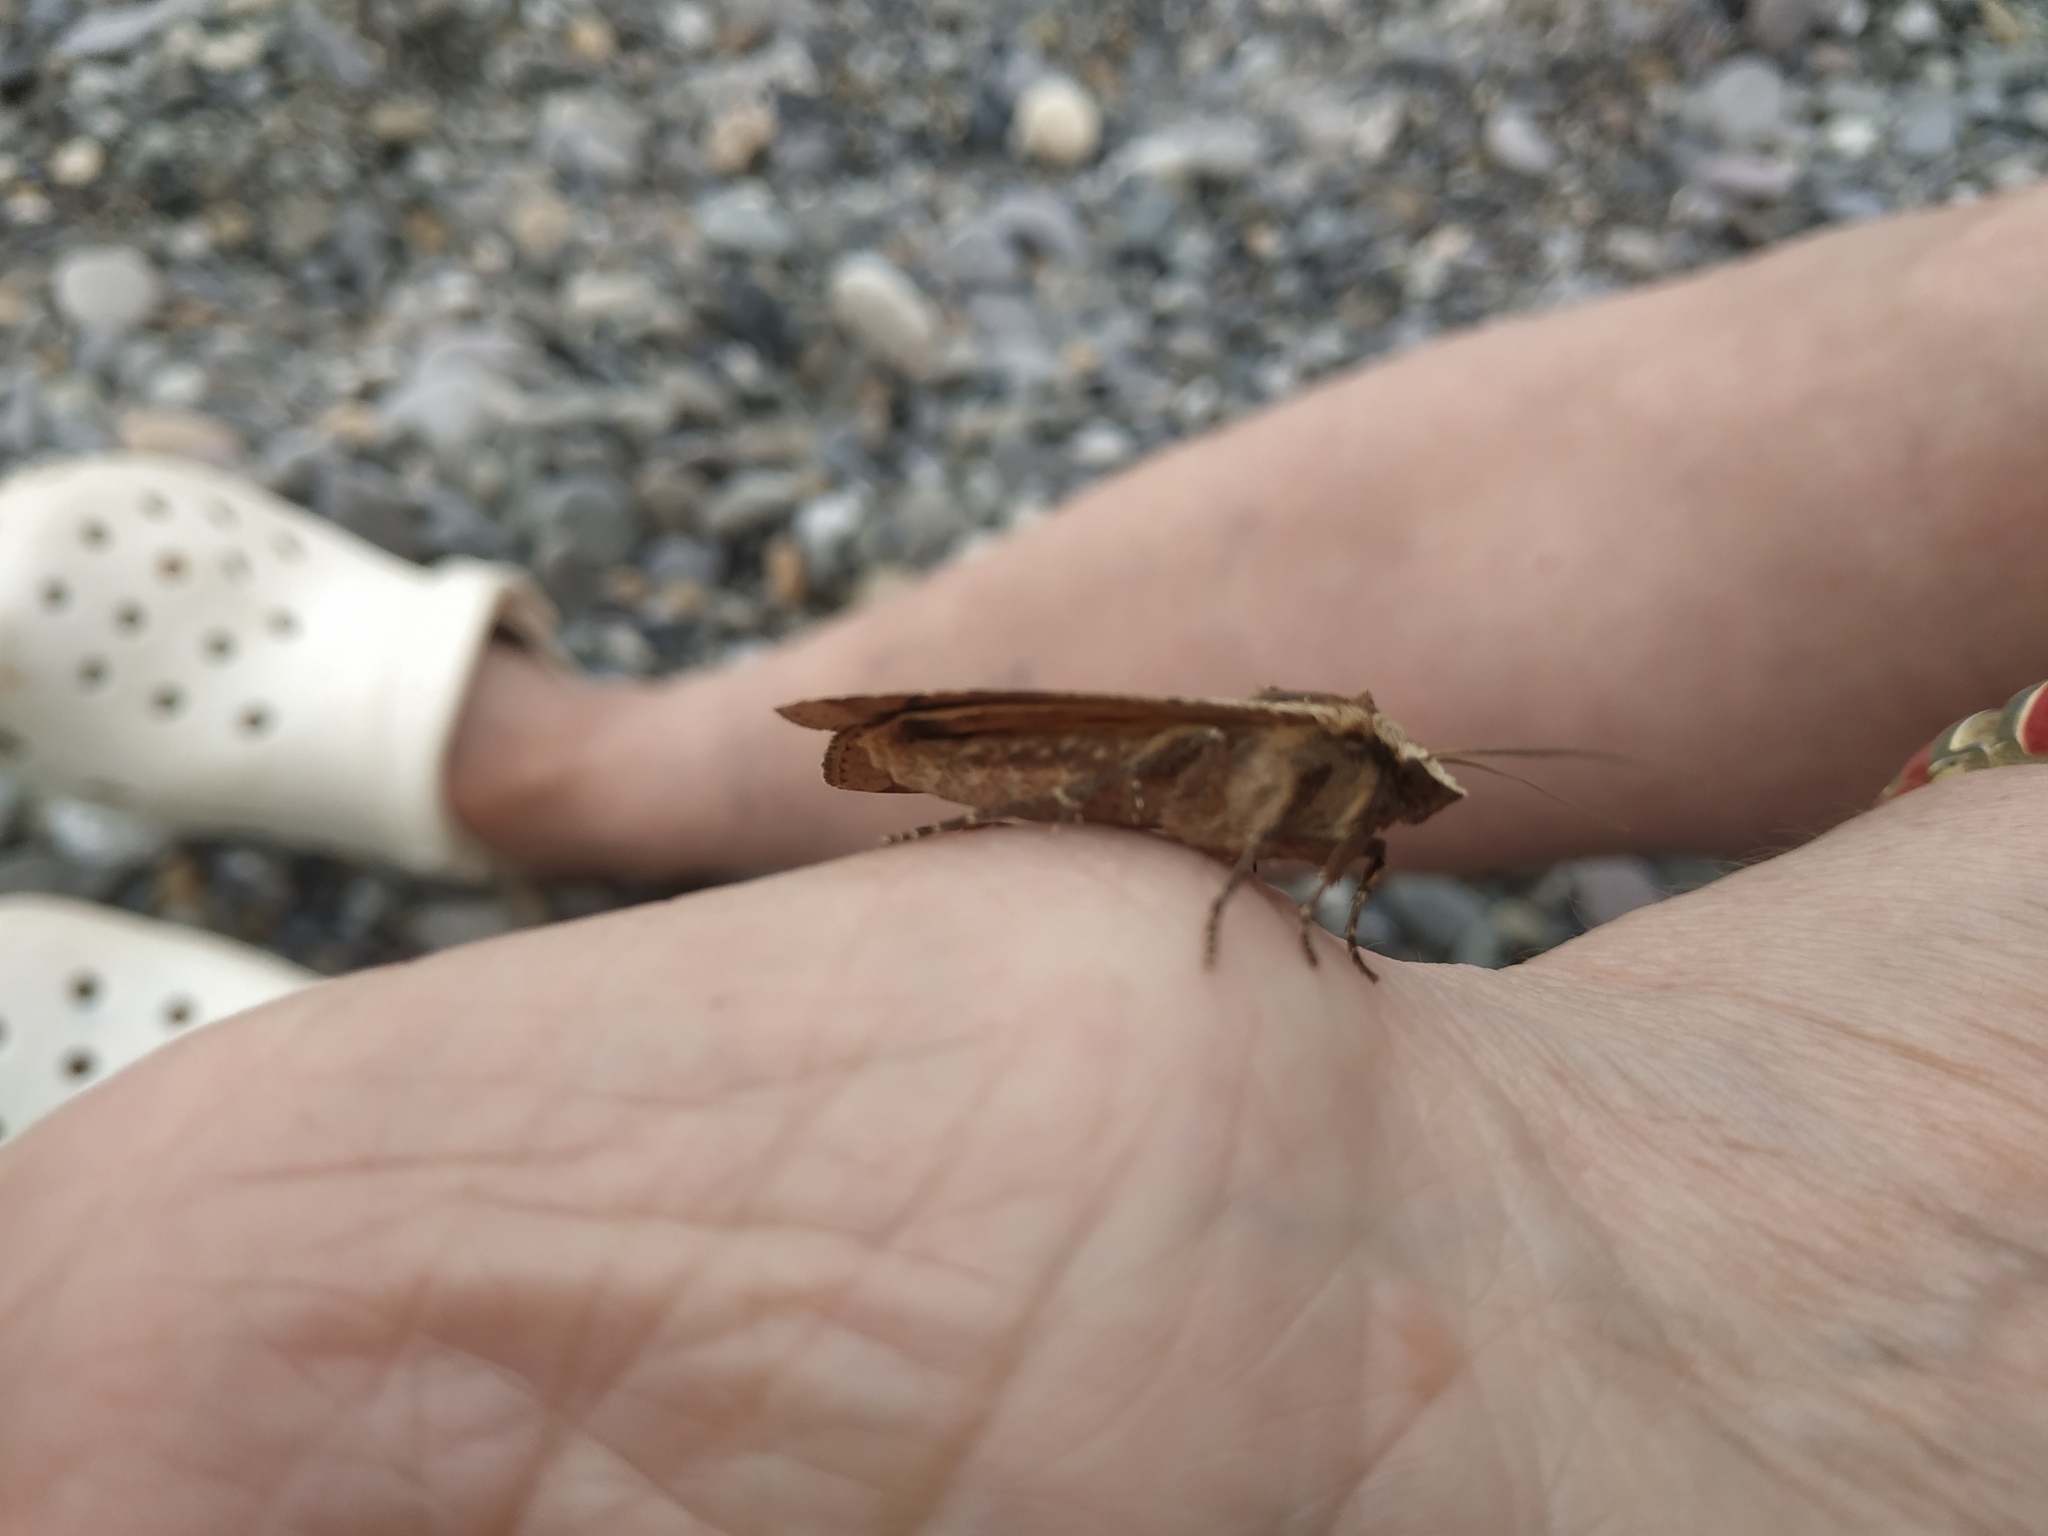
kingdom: Animalia
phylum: Arthropoda
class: Insecta
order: Lepidoptera
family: Noctuidae
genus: Noctua
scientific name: Noctua pronuba
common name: Large yellow underwing
